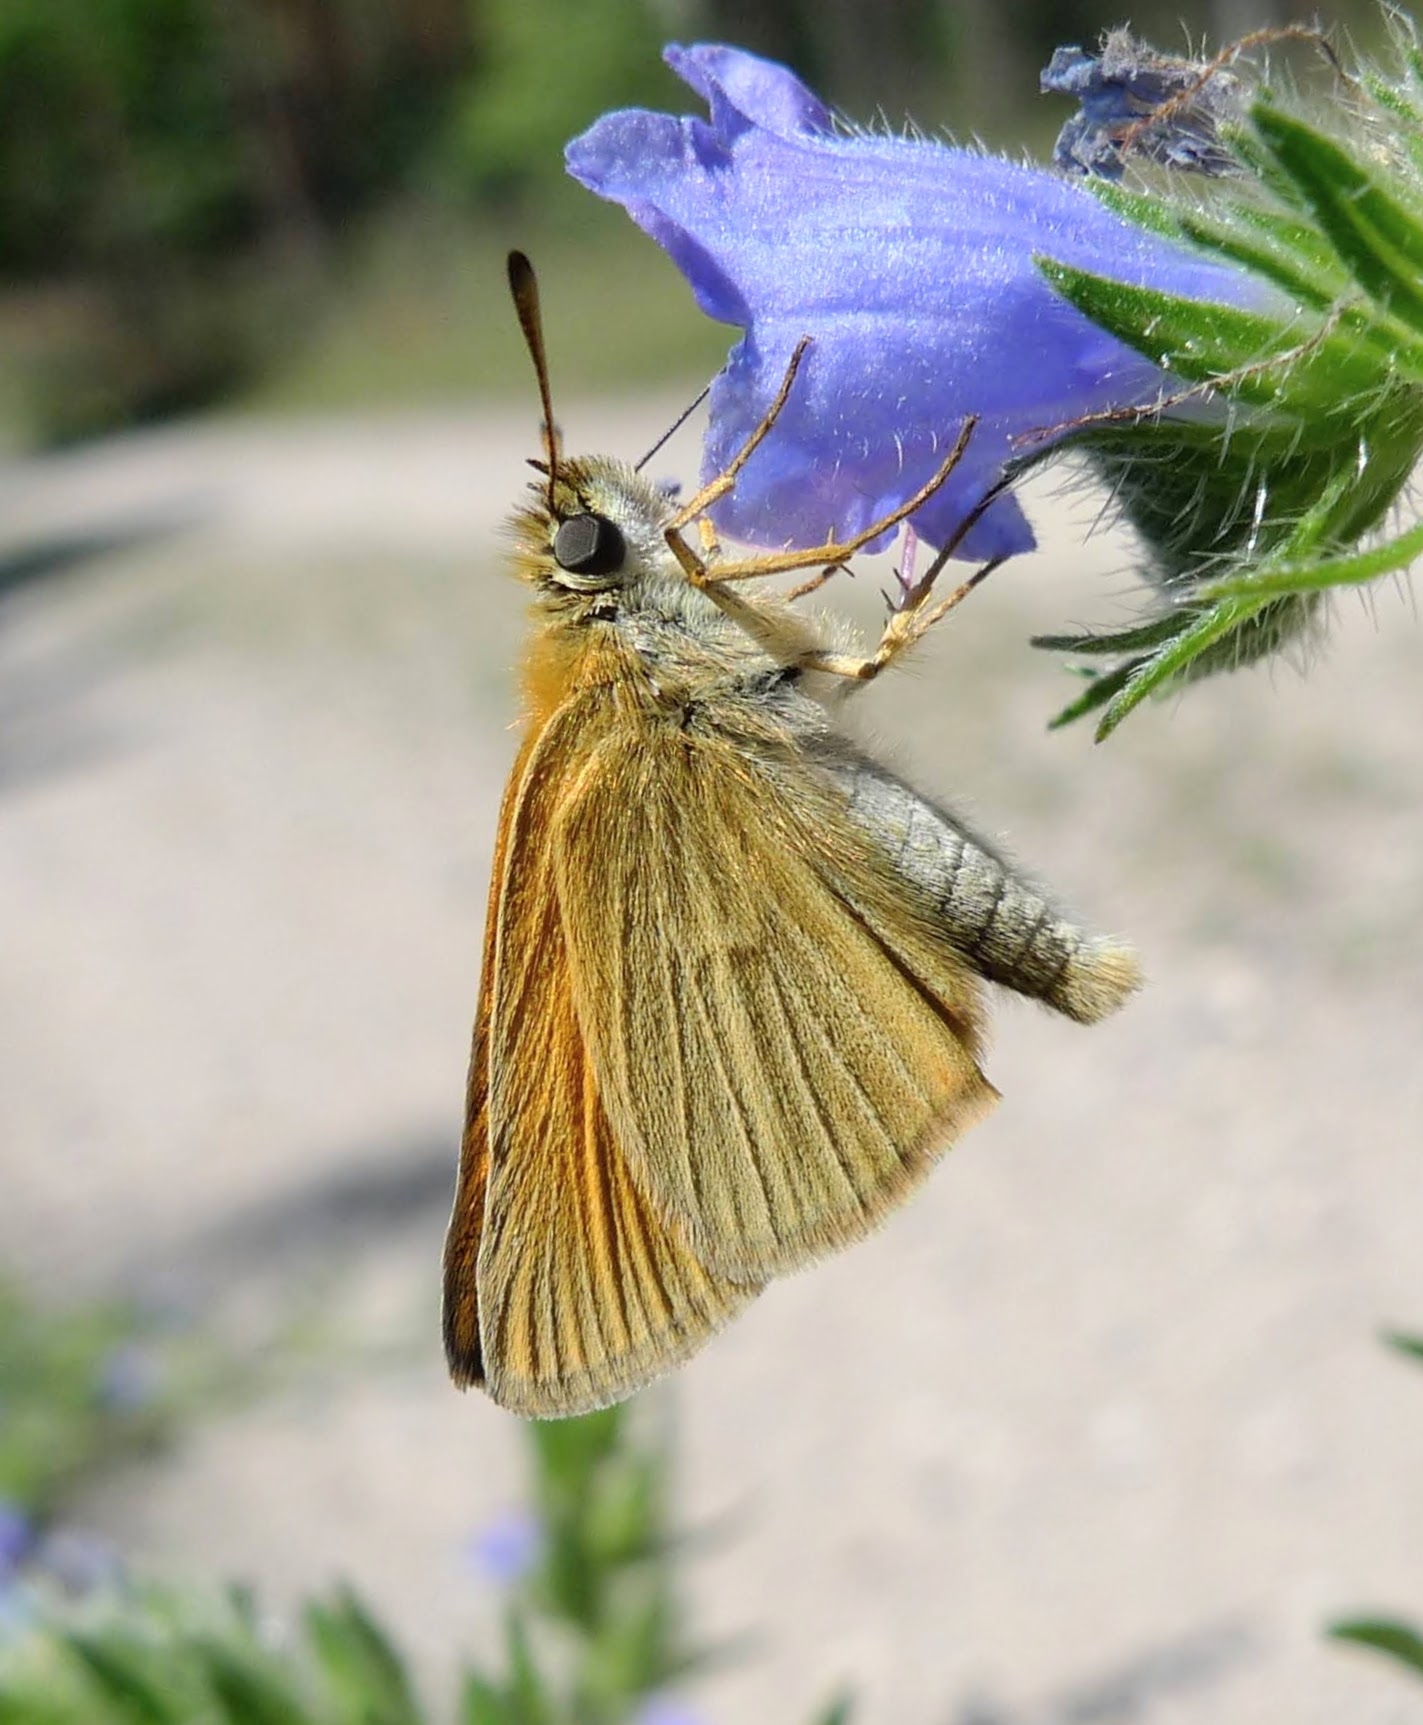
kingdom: Animalia
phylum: Arthropoda
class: Insecta
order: Lepidoptera
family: Hesperiidae
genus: Thymelicus
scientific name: Thymelicus lineola
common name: Essex skipper
